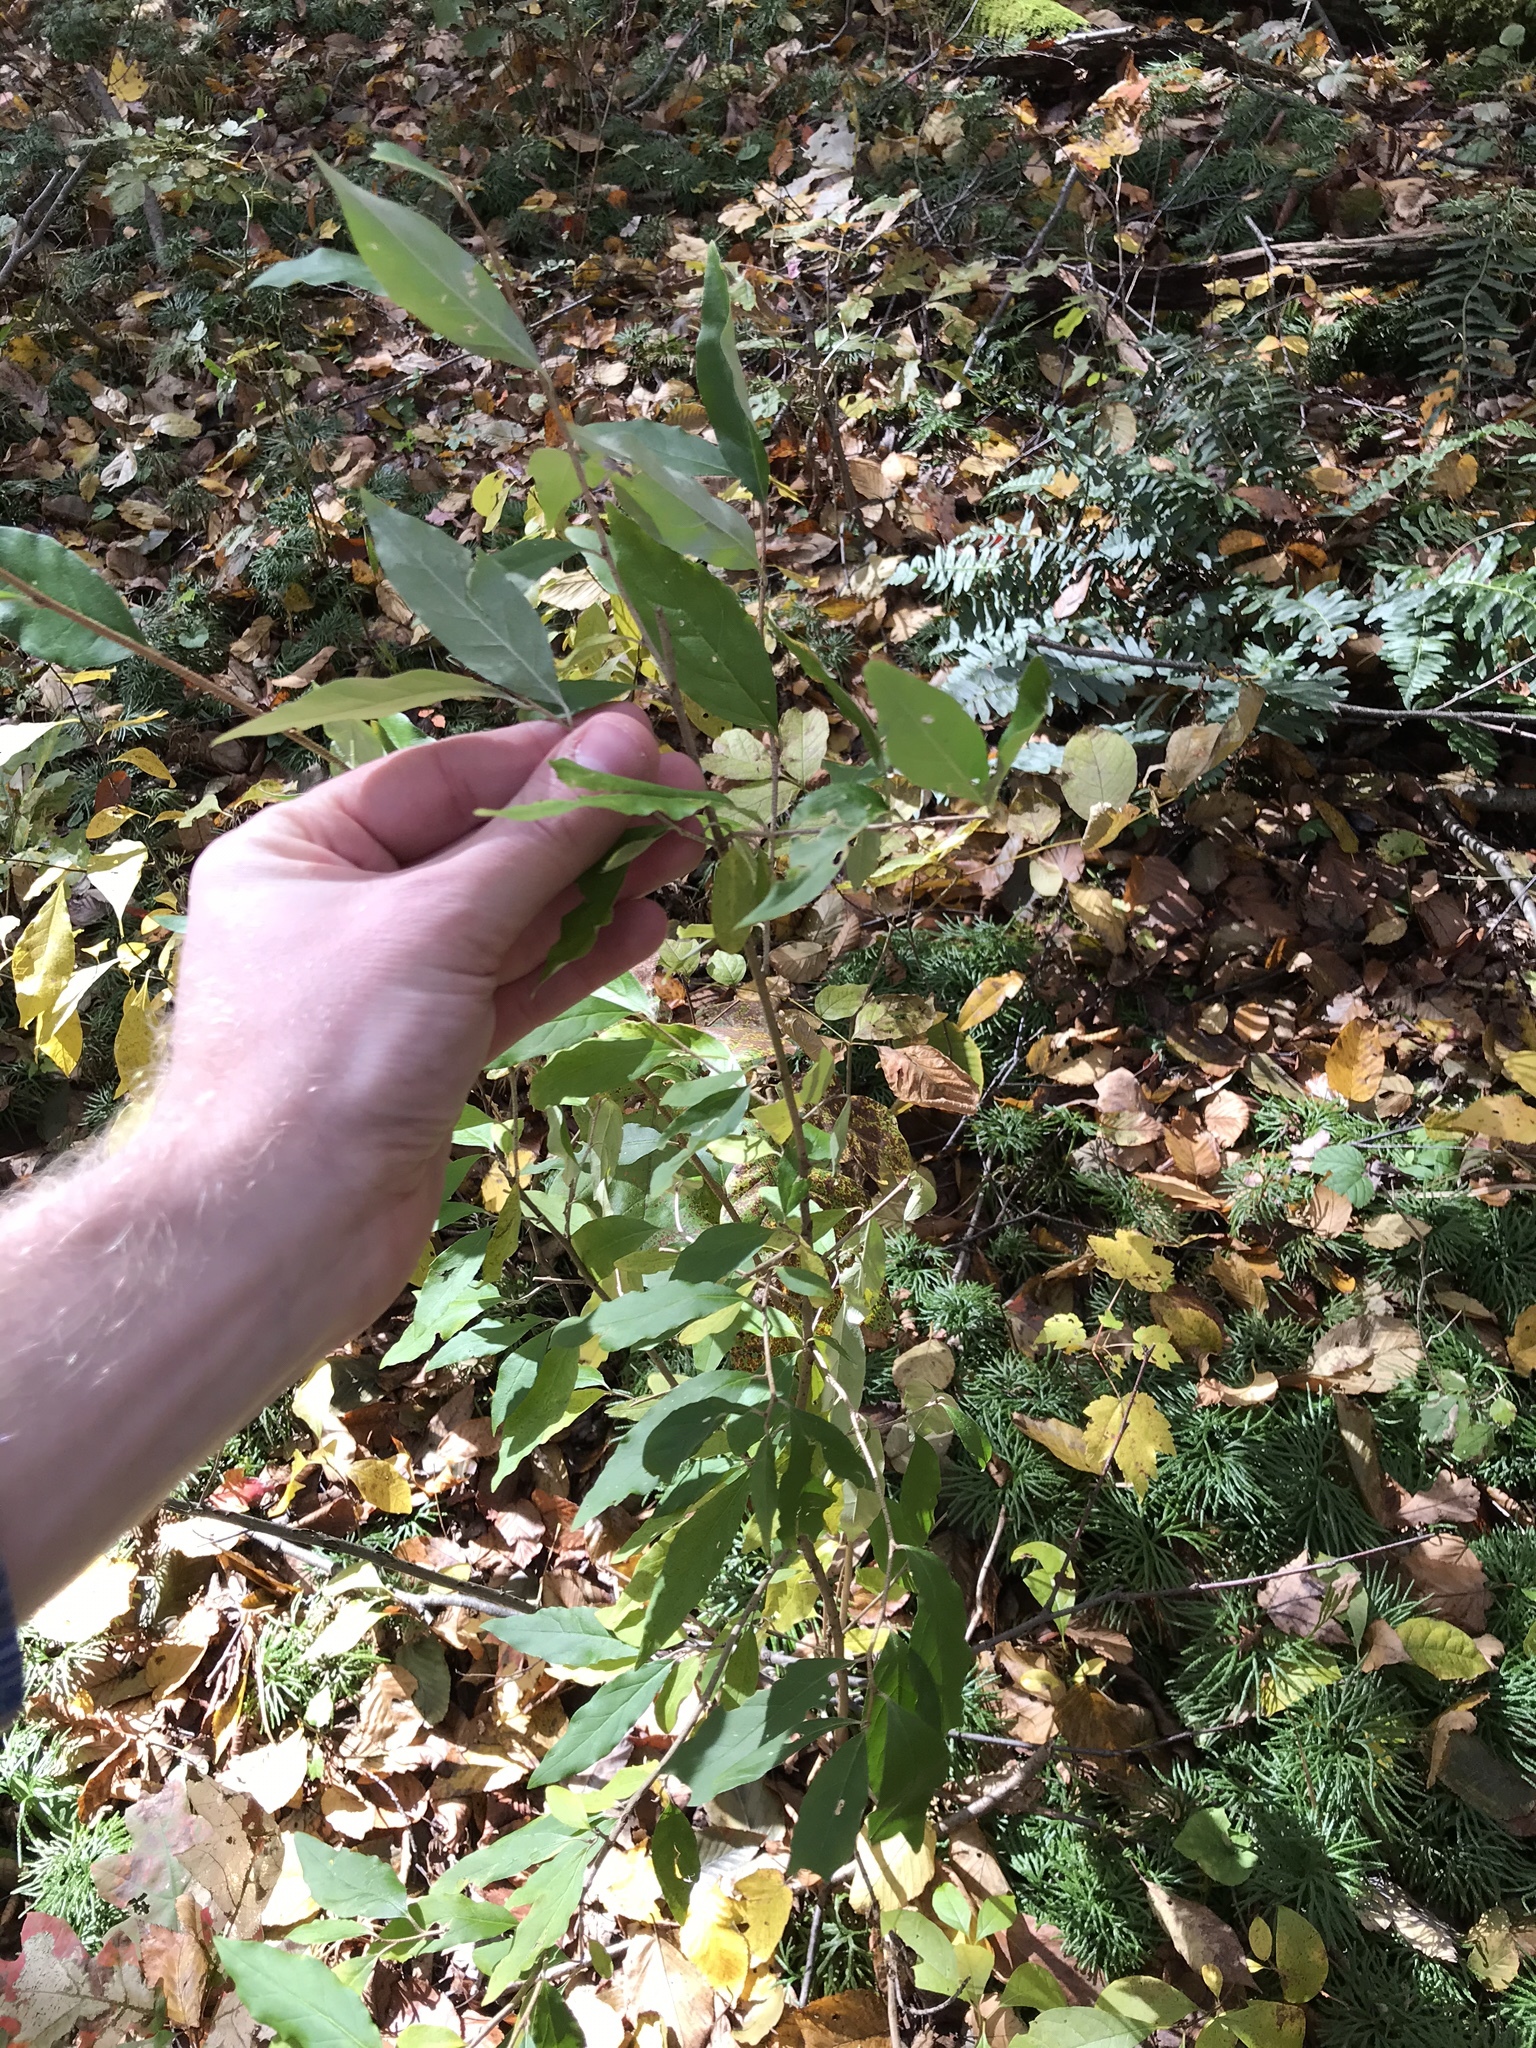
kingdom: Plantae
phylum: Tracheophyta
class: Magnoliopsida
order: Rosales
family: Elaeagnaceae
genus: Elaeagnus
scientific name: Elaeagnus umbellata
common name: Autumn olive
